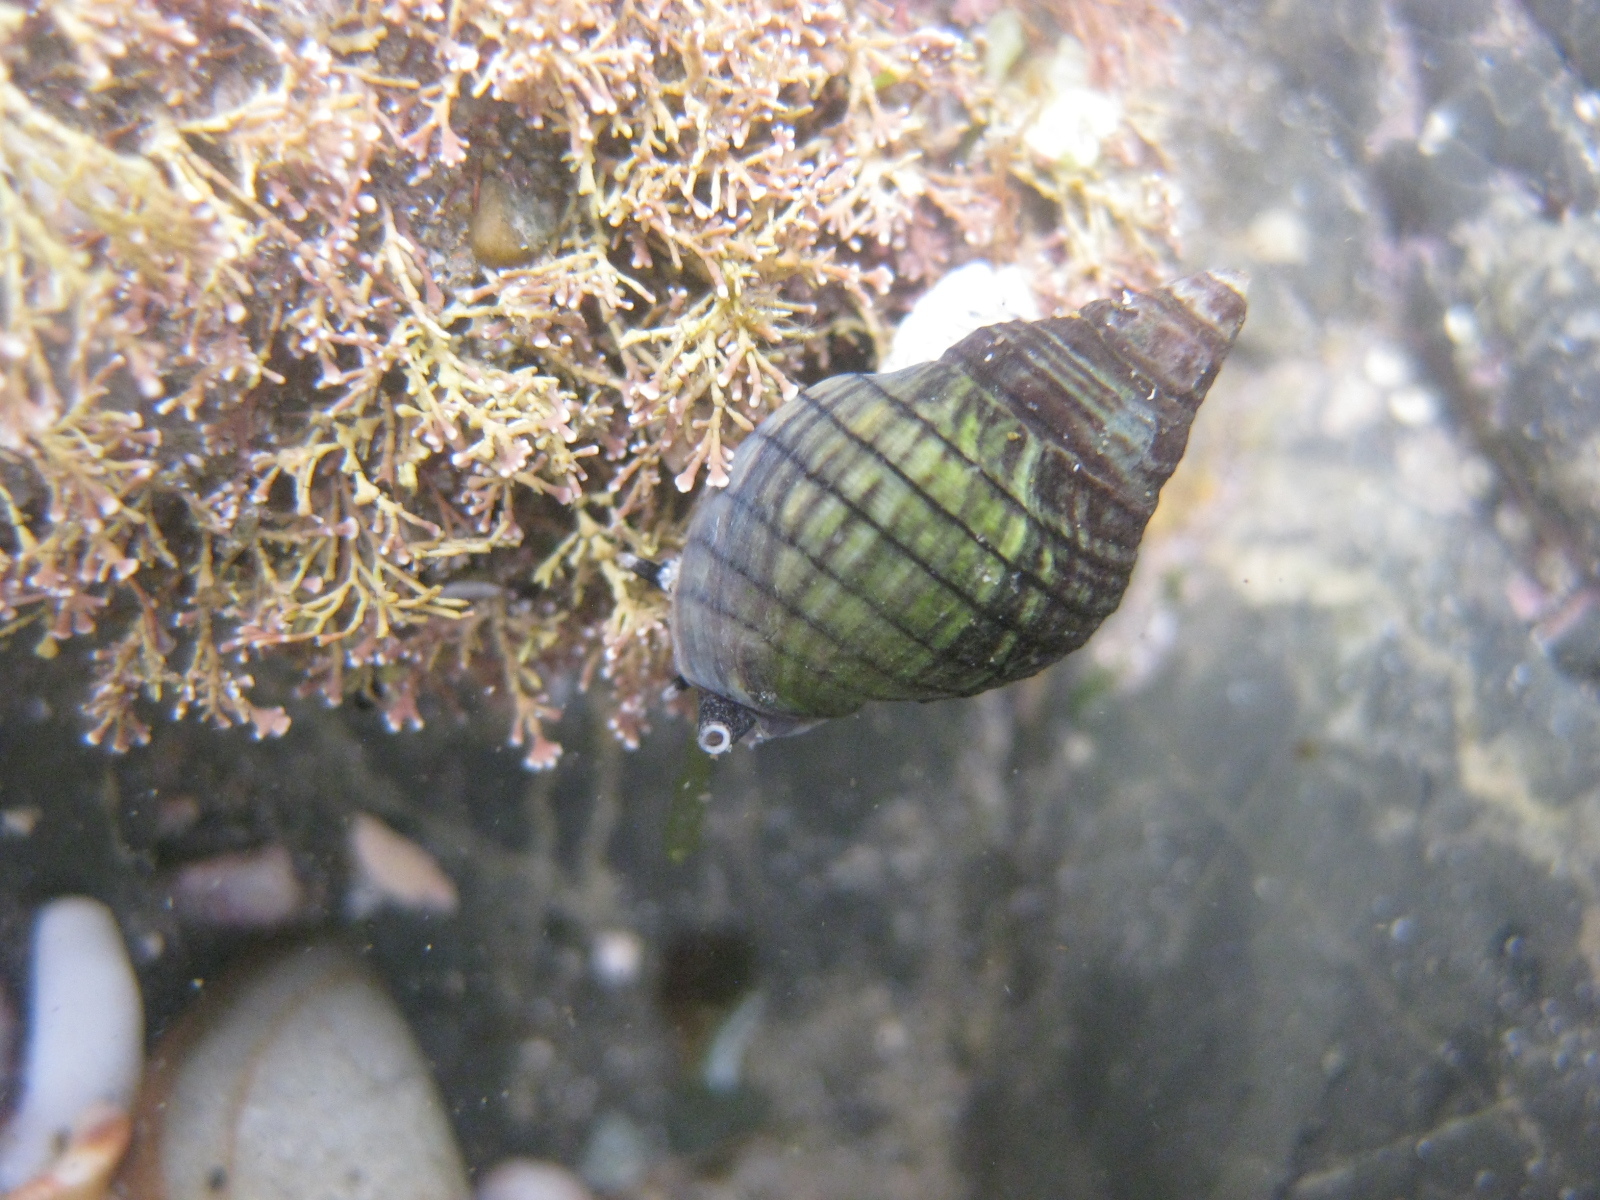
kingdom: Animalia
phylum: Mollusca
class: Gastropoda
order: Neogastropoda
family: Cominellidae
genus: Cominella
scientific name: Cominella virgata
